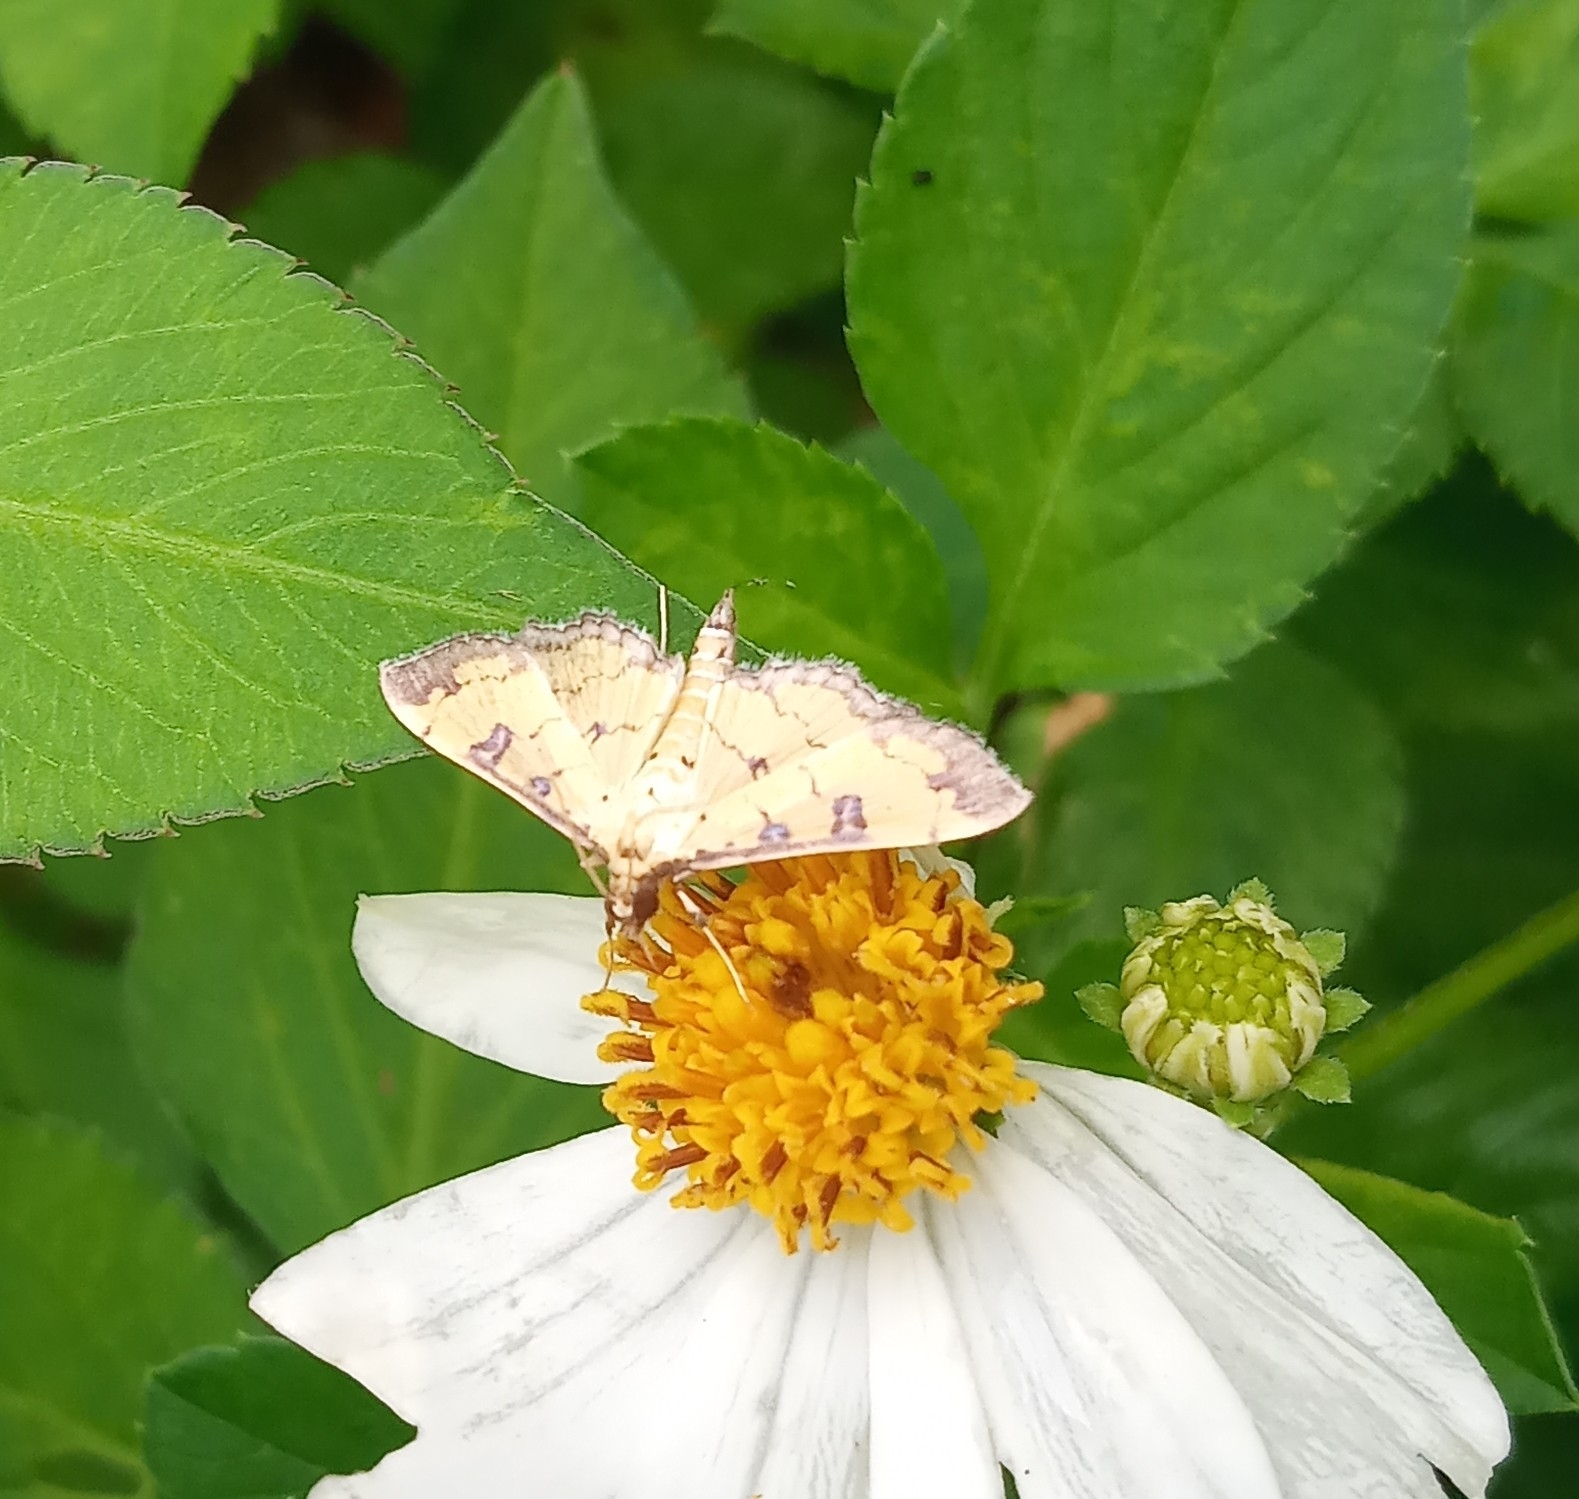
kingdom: Animalia
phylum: Arthropoda
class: Insecta
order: Lepidoptera
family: Crambidae
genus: Ategumia
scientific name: Ategumia ebulealis
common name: Moth
